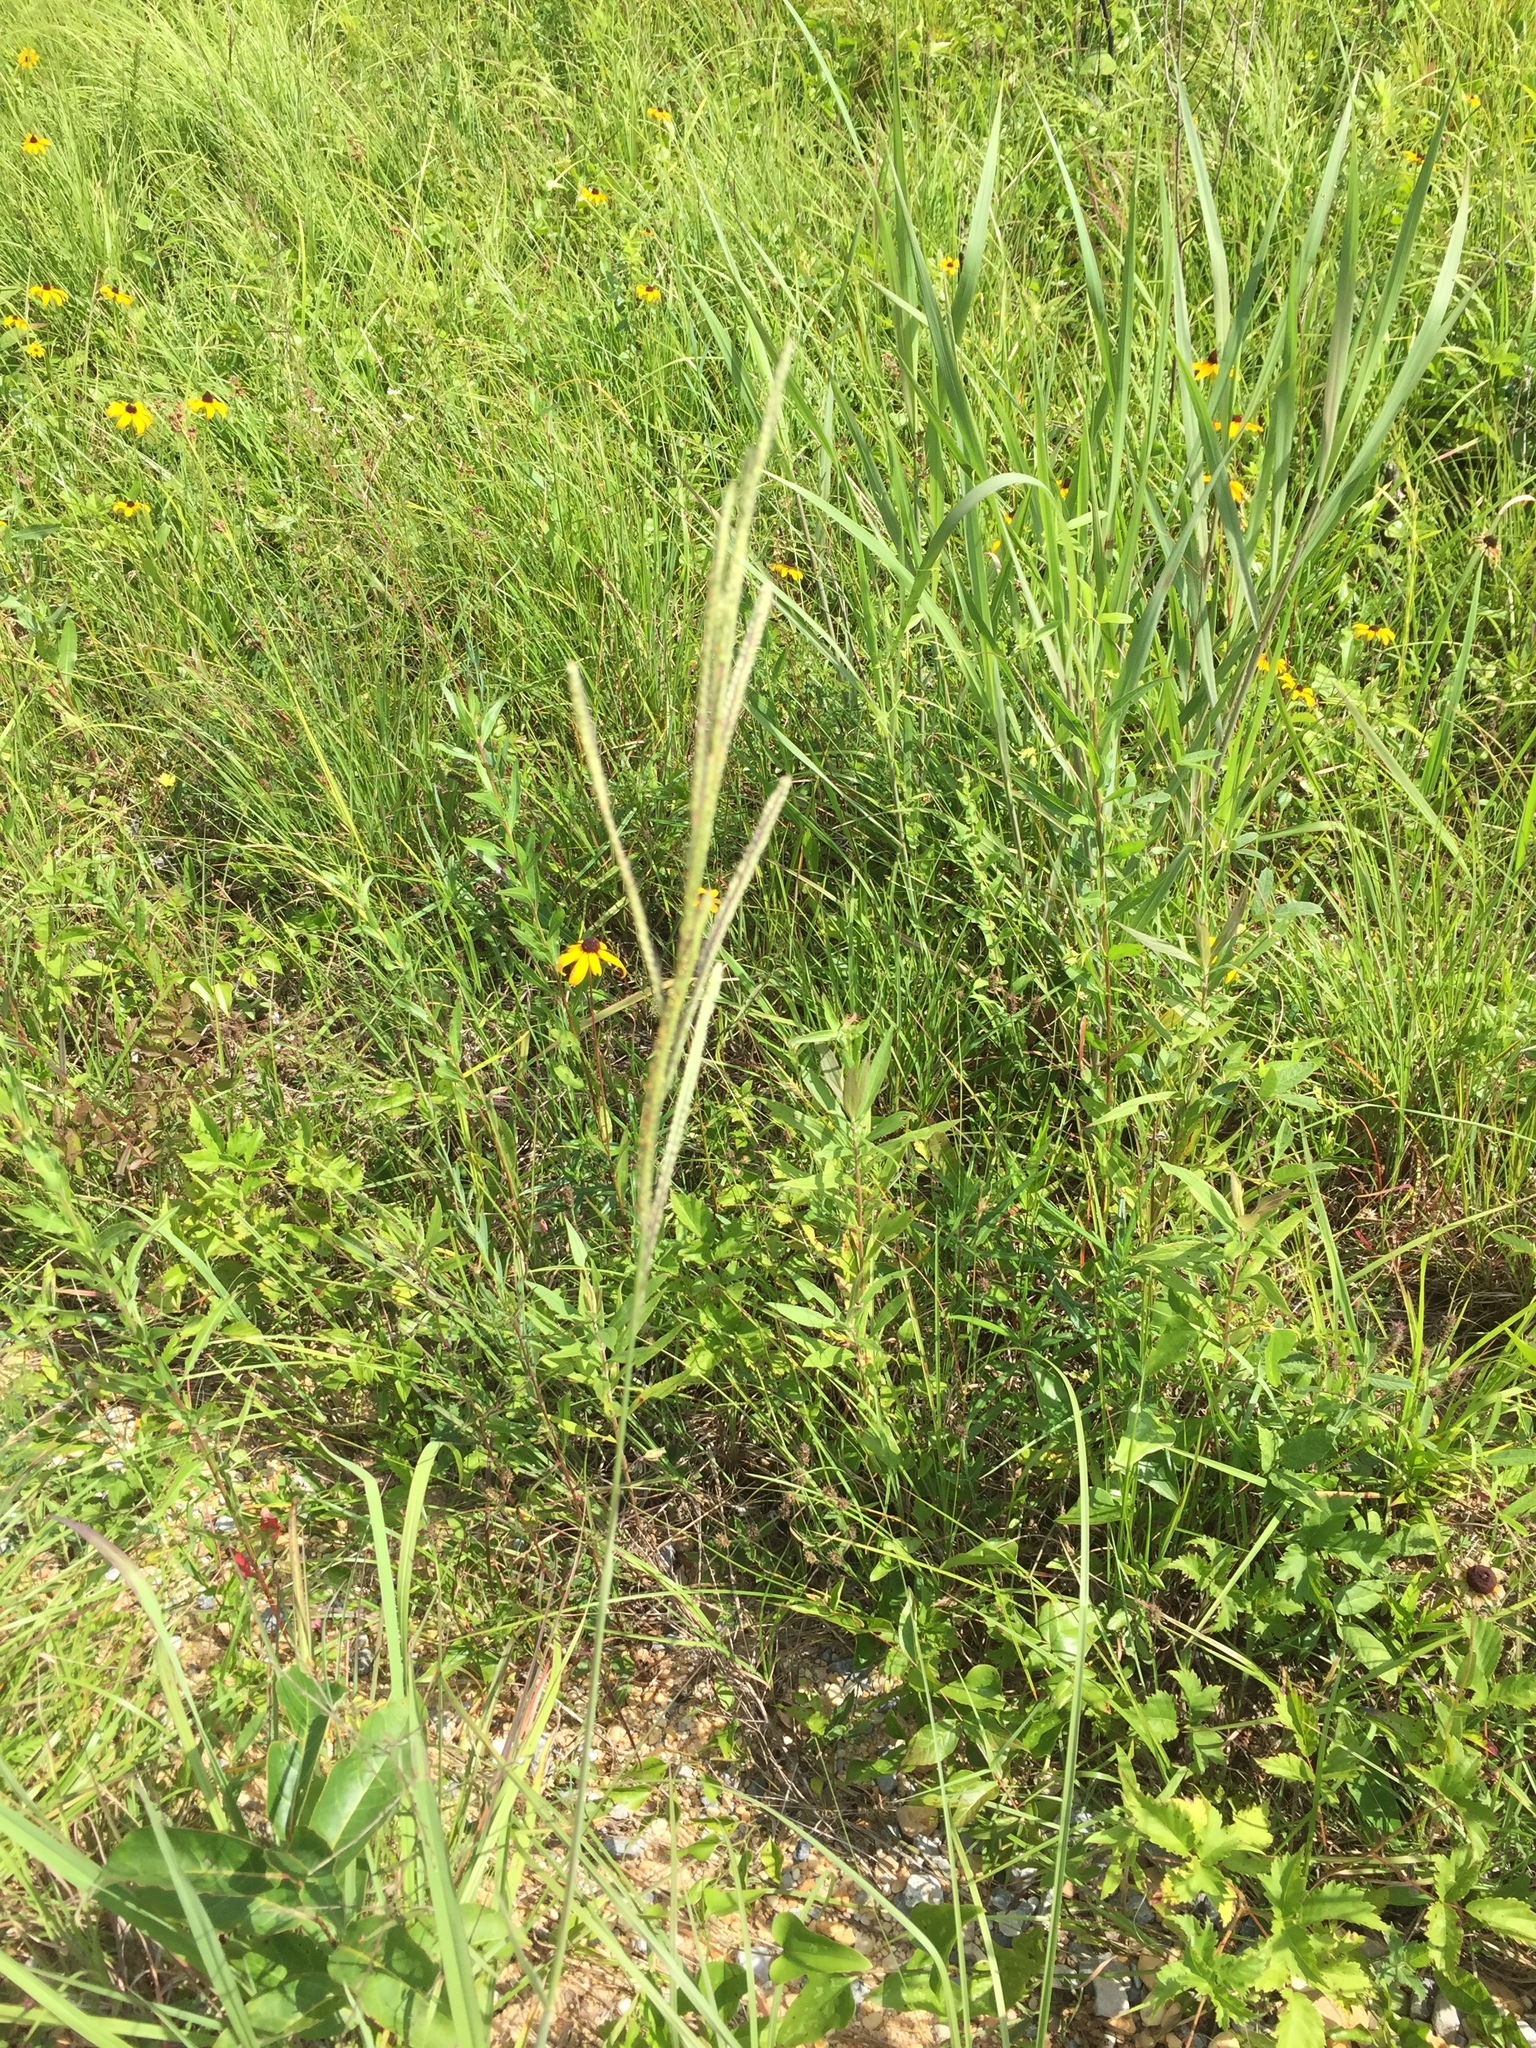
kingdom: Plantae
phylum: Tracheophyta
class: Liliopsida
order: Poales
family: Poaceae
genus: Paspalum
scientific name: Paspalum urvillei
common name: Vasey's grass
